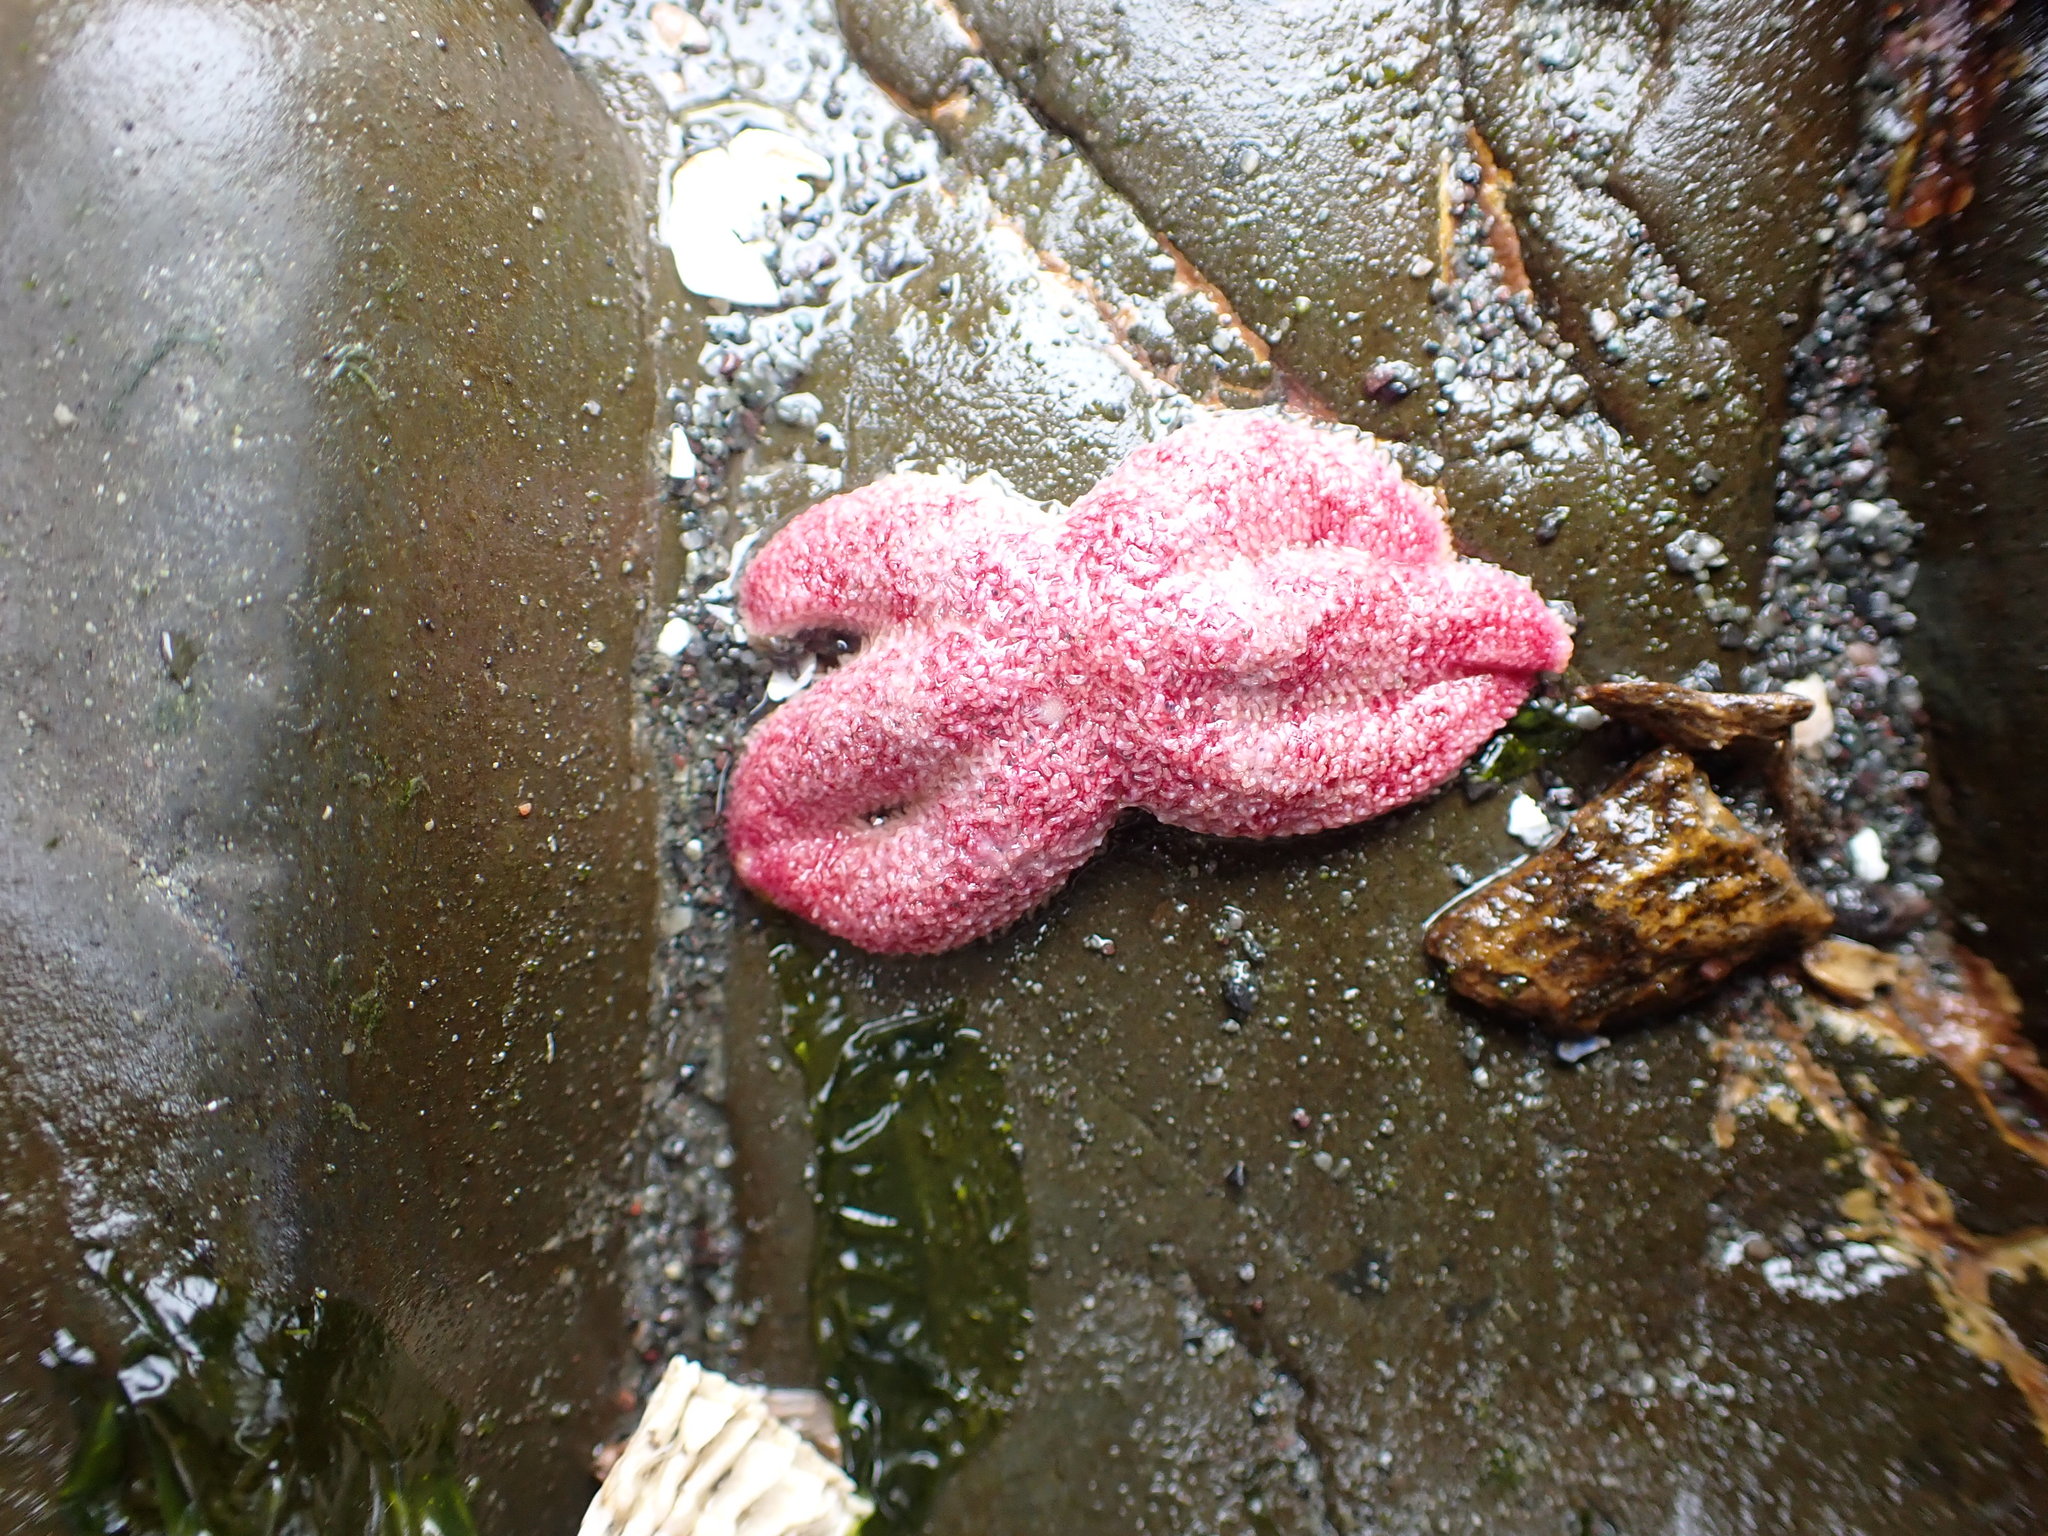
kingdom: Animalia
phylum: Echinodermata
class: Asteroidea
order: Forcipulatida
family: Asteriidae
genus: Leptasterias
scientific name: Leptasterias hexactis
